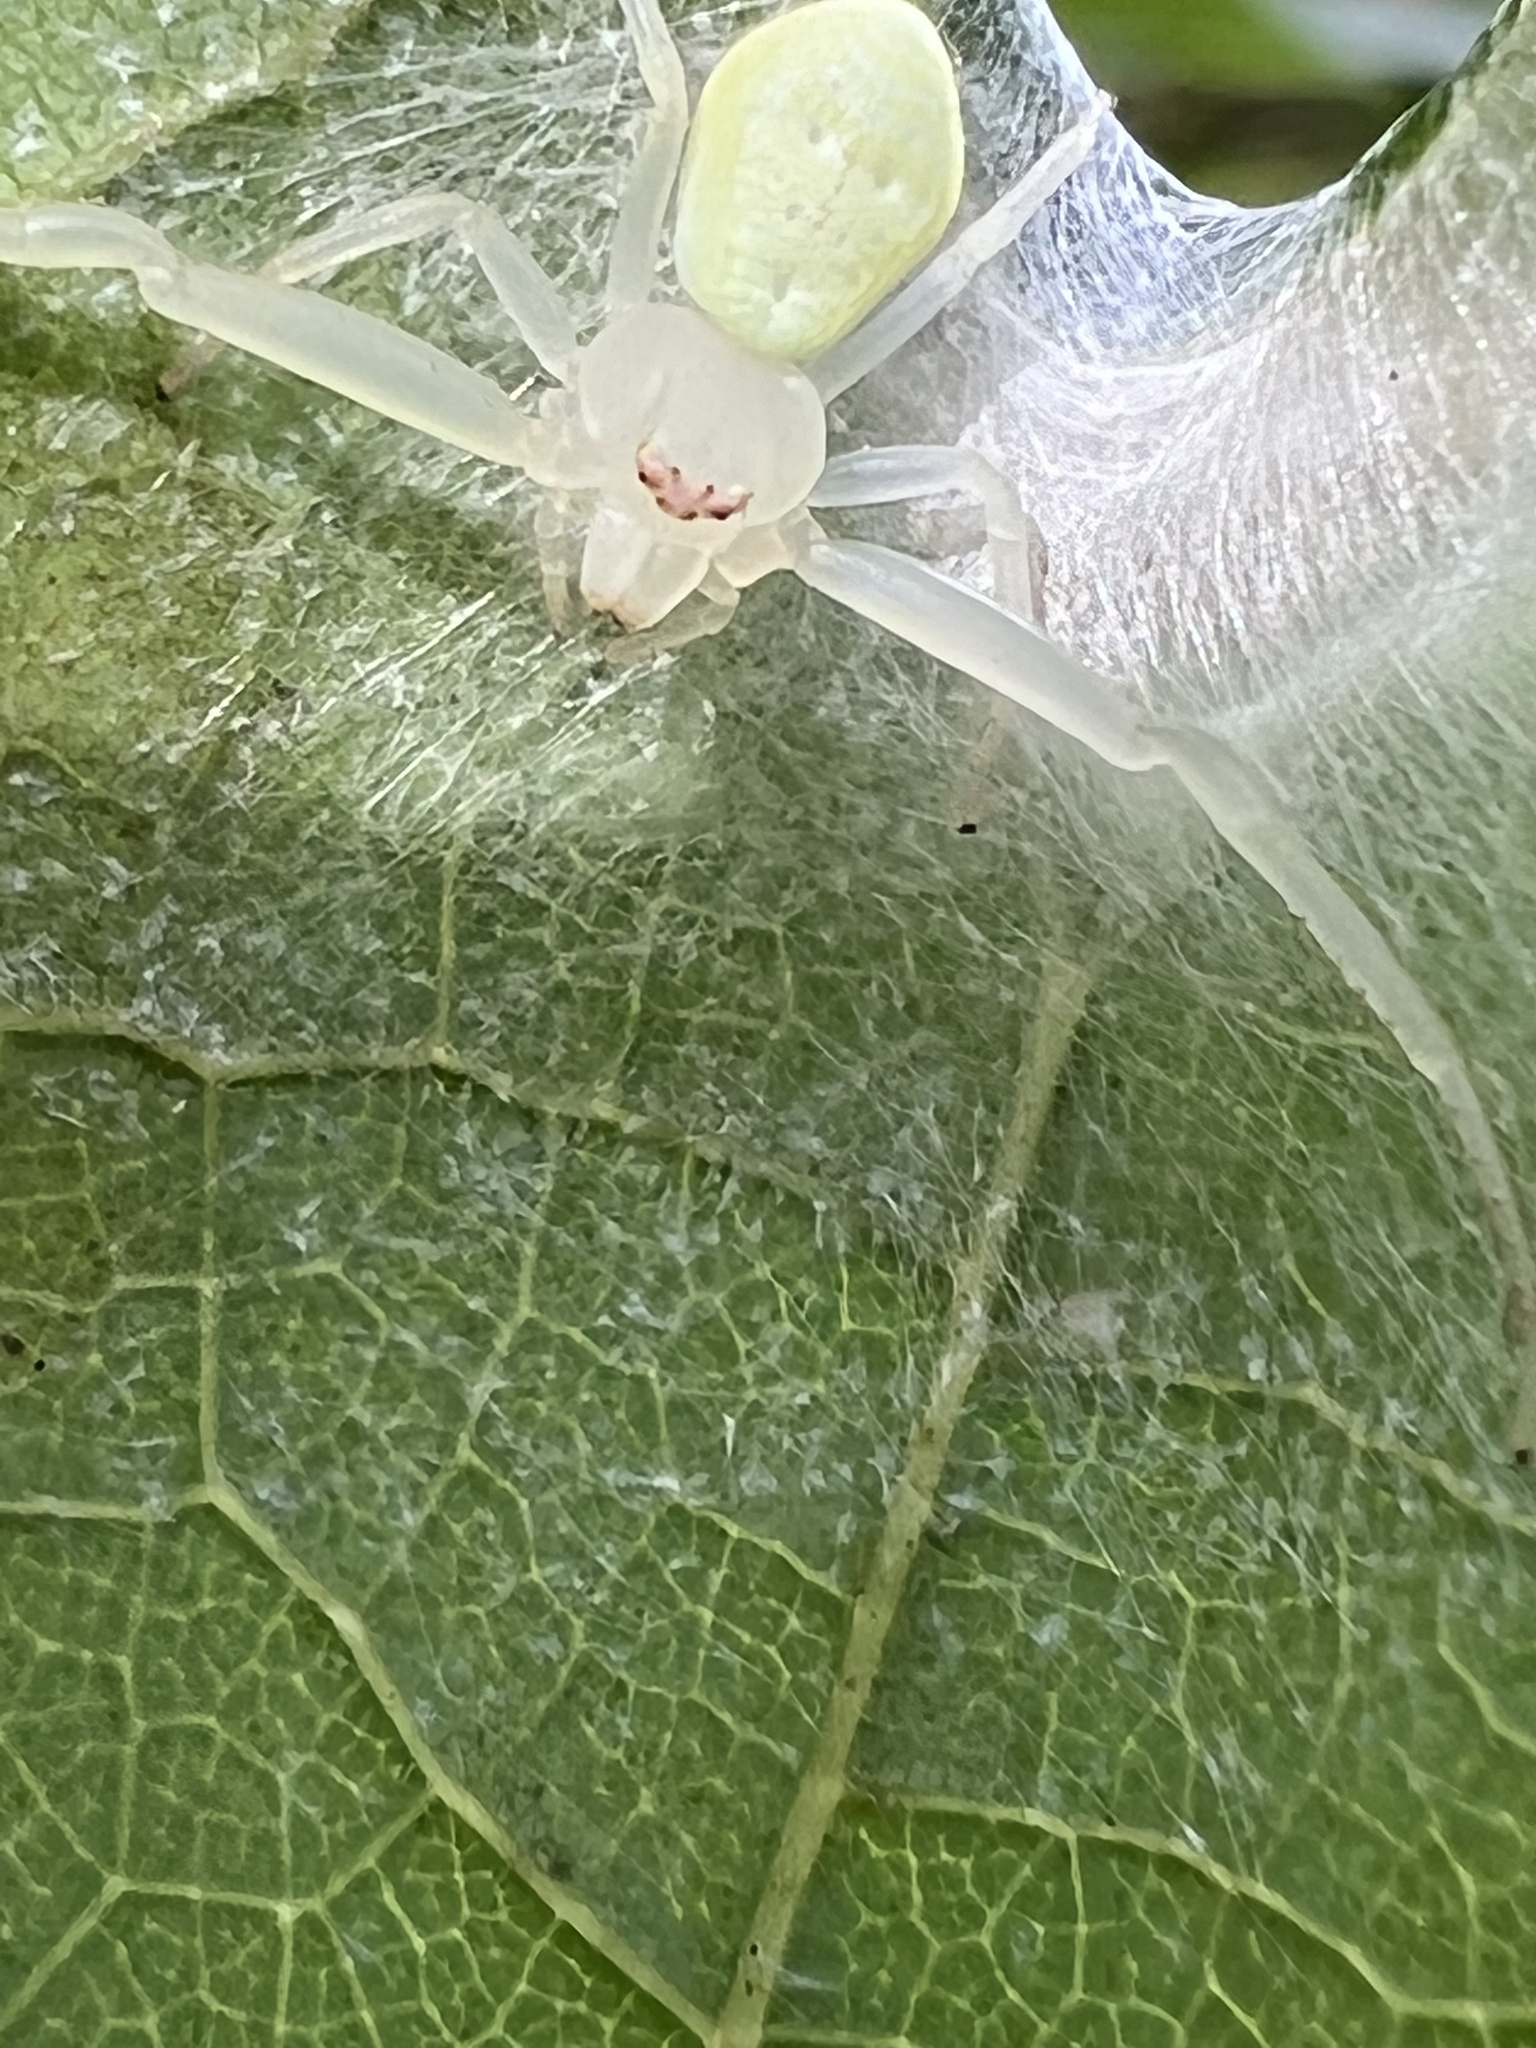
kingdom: Animalia
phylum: Arthropoda
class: Arachnida
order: Araneae
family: Thomisidae
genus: Misumessus
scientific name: Misumessus oblongus
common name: American green crab spider
